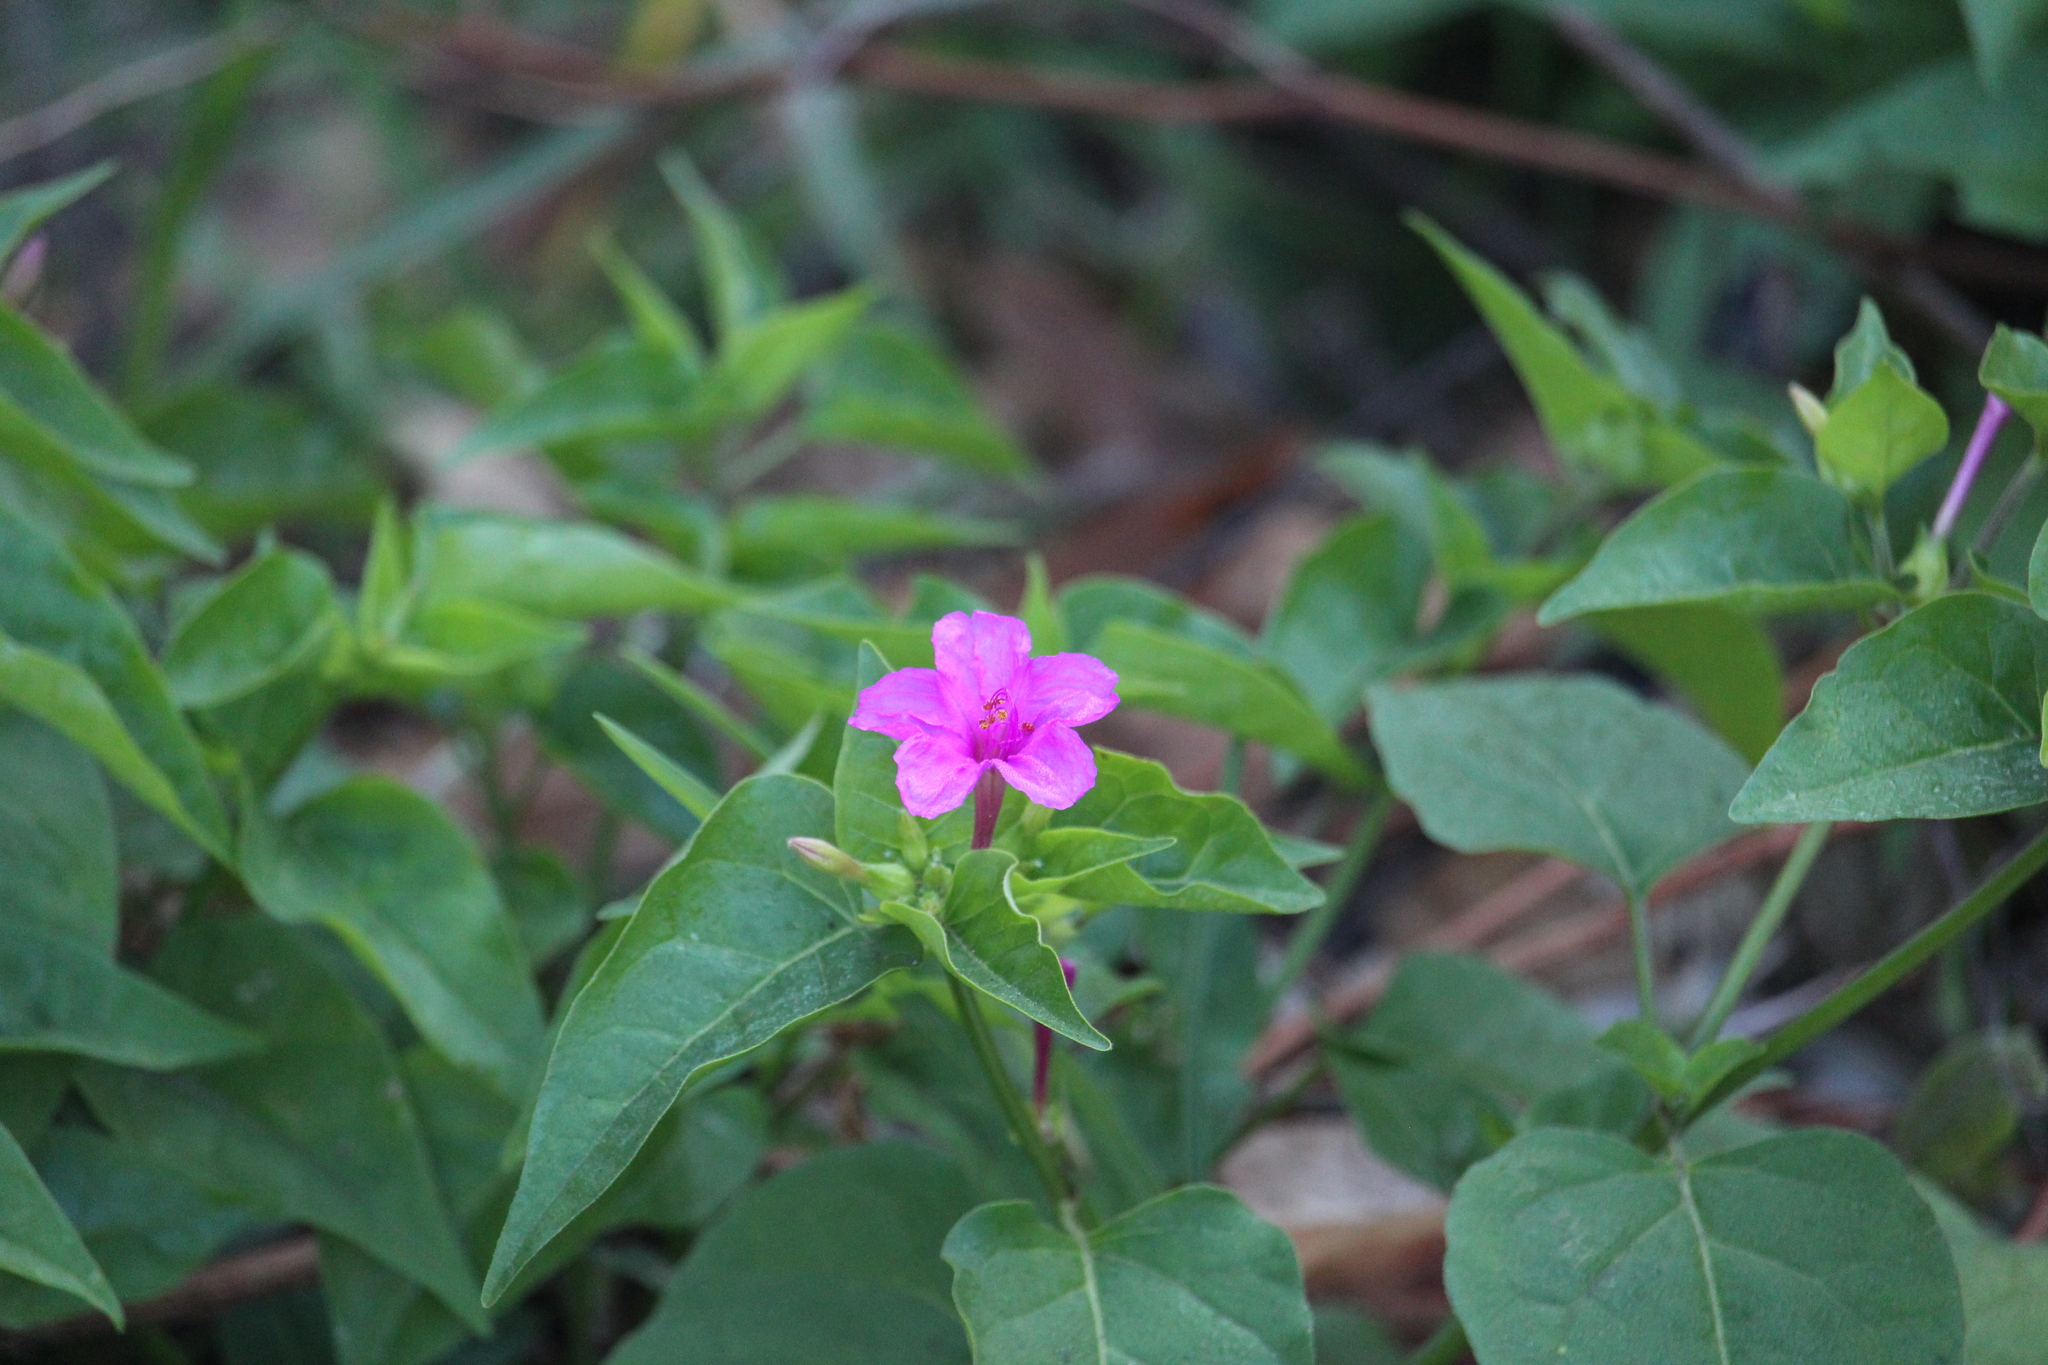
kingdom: Plantae
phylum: Tracheophyta
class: Magnoliopsida
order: Caryophyllales
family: Nyctaginaceae
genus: Mirabilis
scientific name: Mirabilis jalapa
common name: Marvel-of-peru
